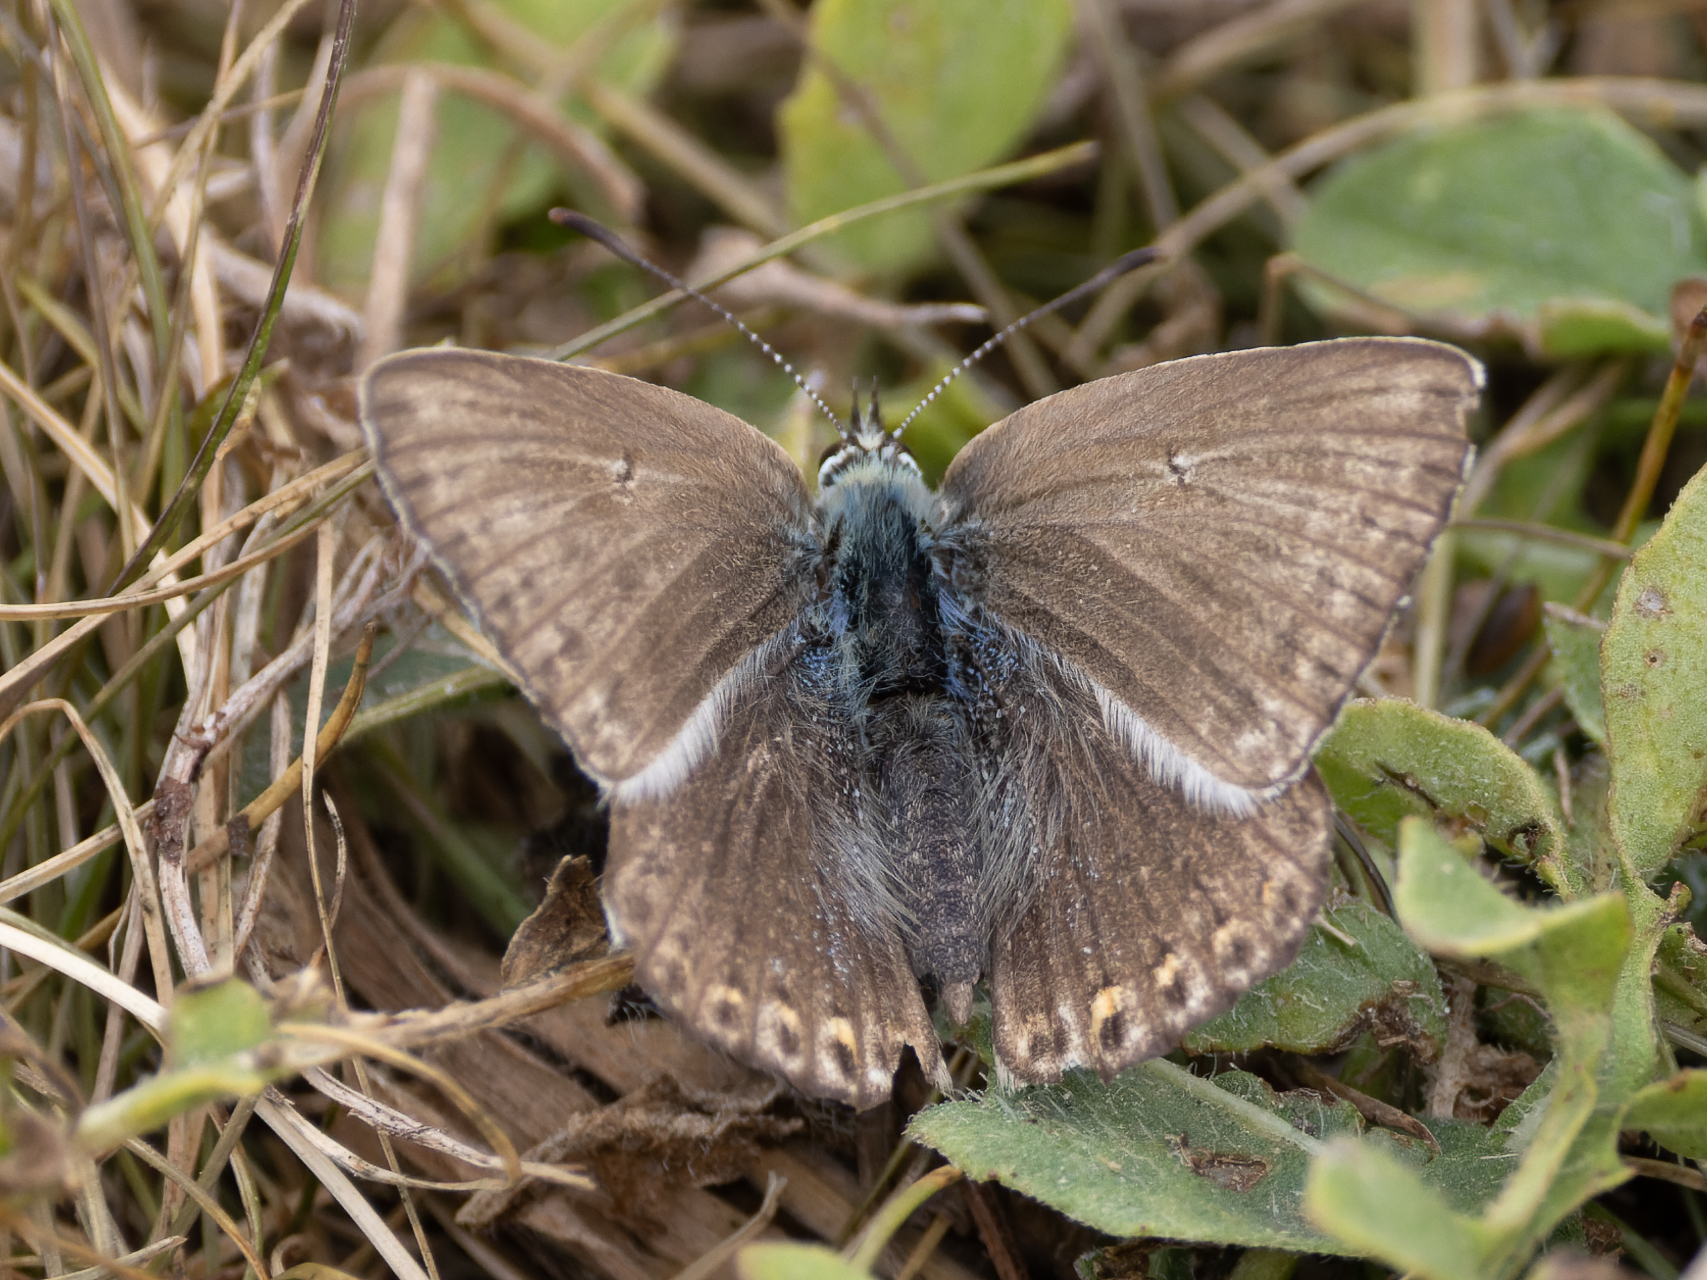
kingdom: Animalia
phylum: Arthropoda
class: Insecta
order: Lepidoptera
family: Lycaenidae
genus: Lysandra
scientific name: Lysandra coridon
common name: Chalkhill blue
